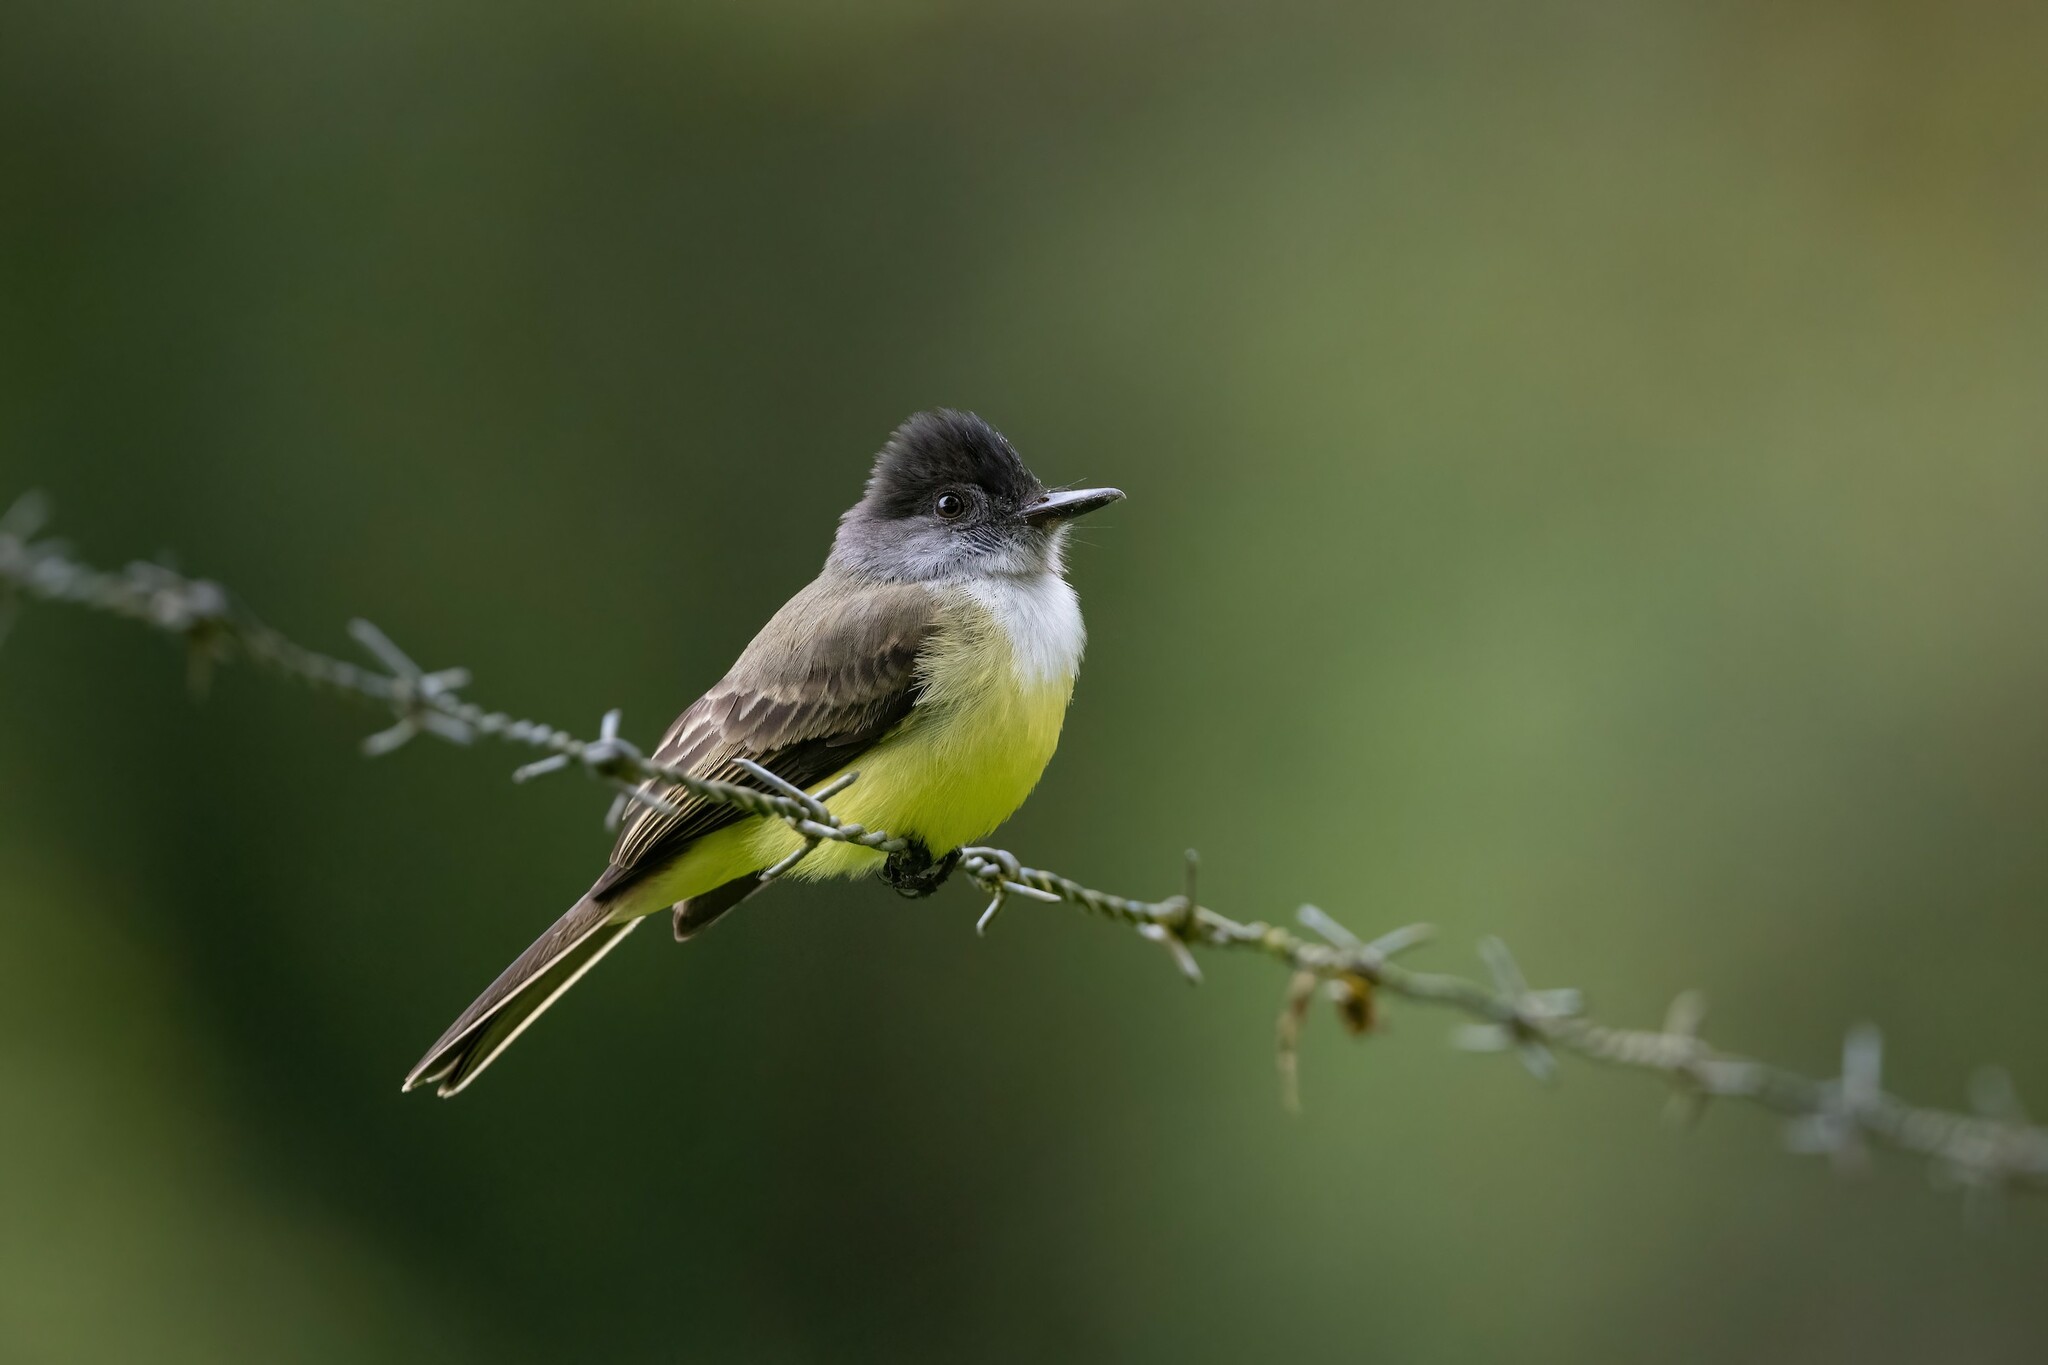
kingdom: Animalia
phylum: Chordata
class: Aves
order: Passeriformes
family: Tyrannidae
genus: Myiarchus
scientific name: Myiarchus tuberculifer
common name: Dusky-capped flycatcher
